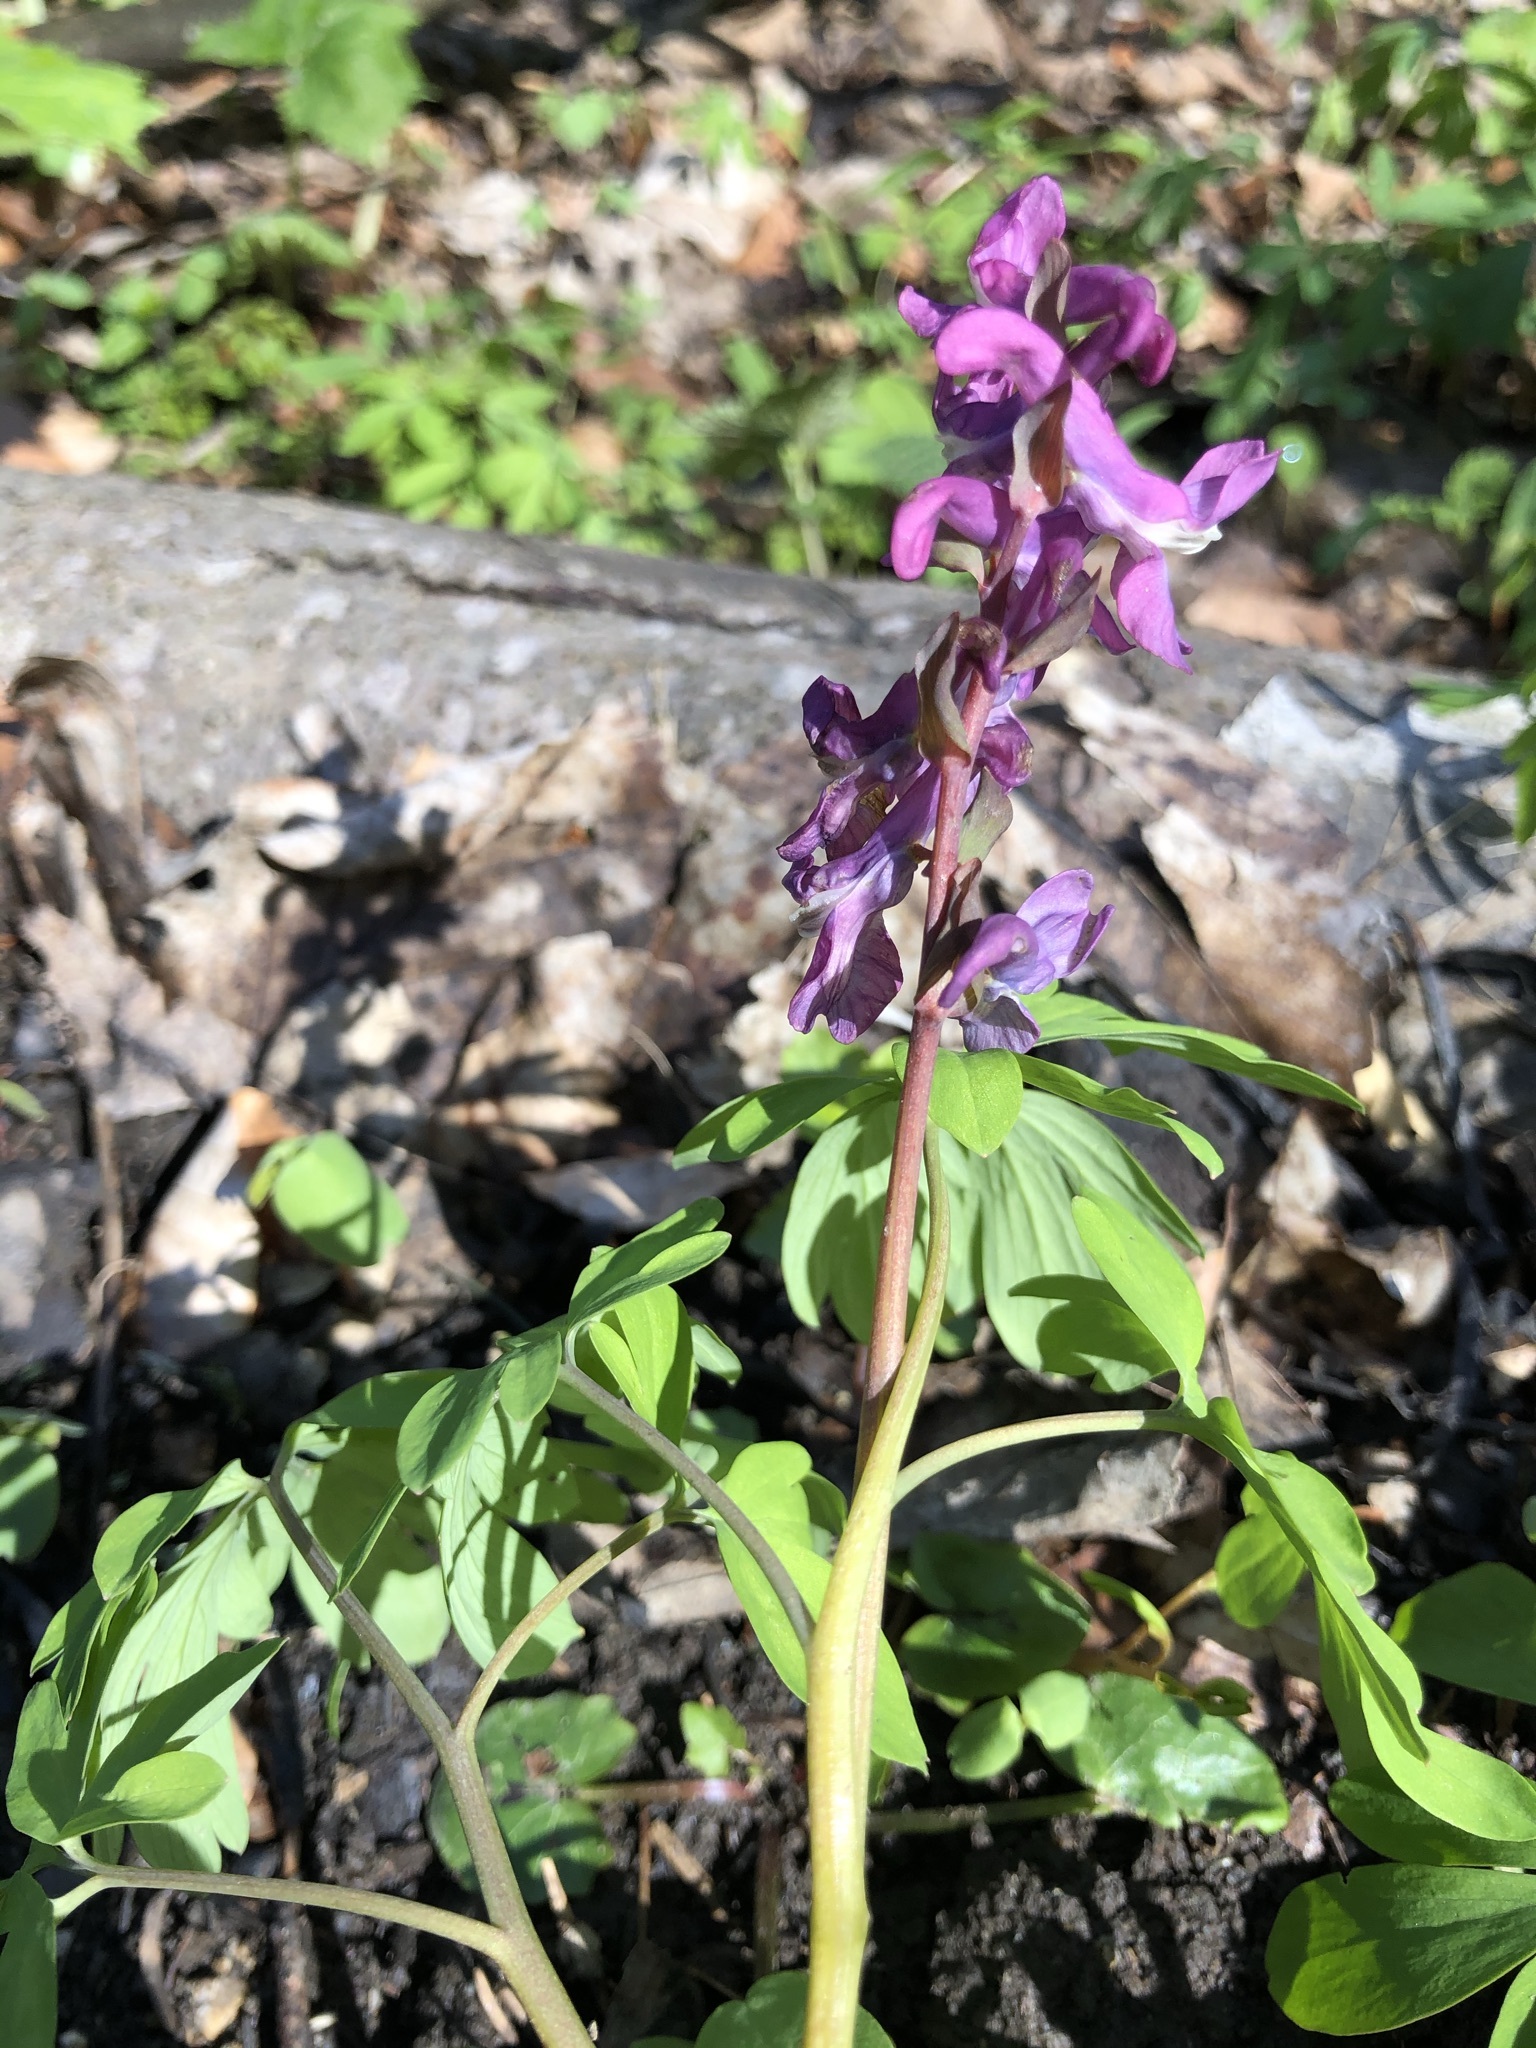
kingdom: Plantae
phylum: Tracheophyta
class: Magnoliopsida
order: Ranunculales
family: Papaveraceae
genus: Corydalis
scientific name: Corydalis cava
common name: Hollowroot
